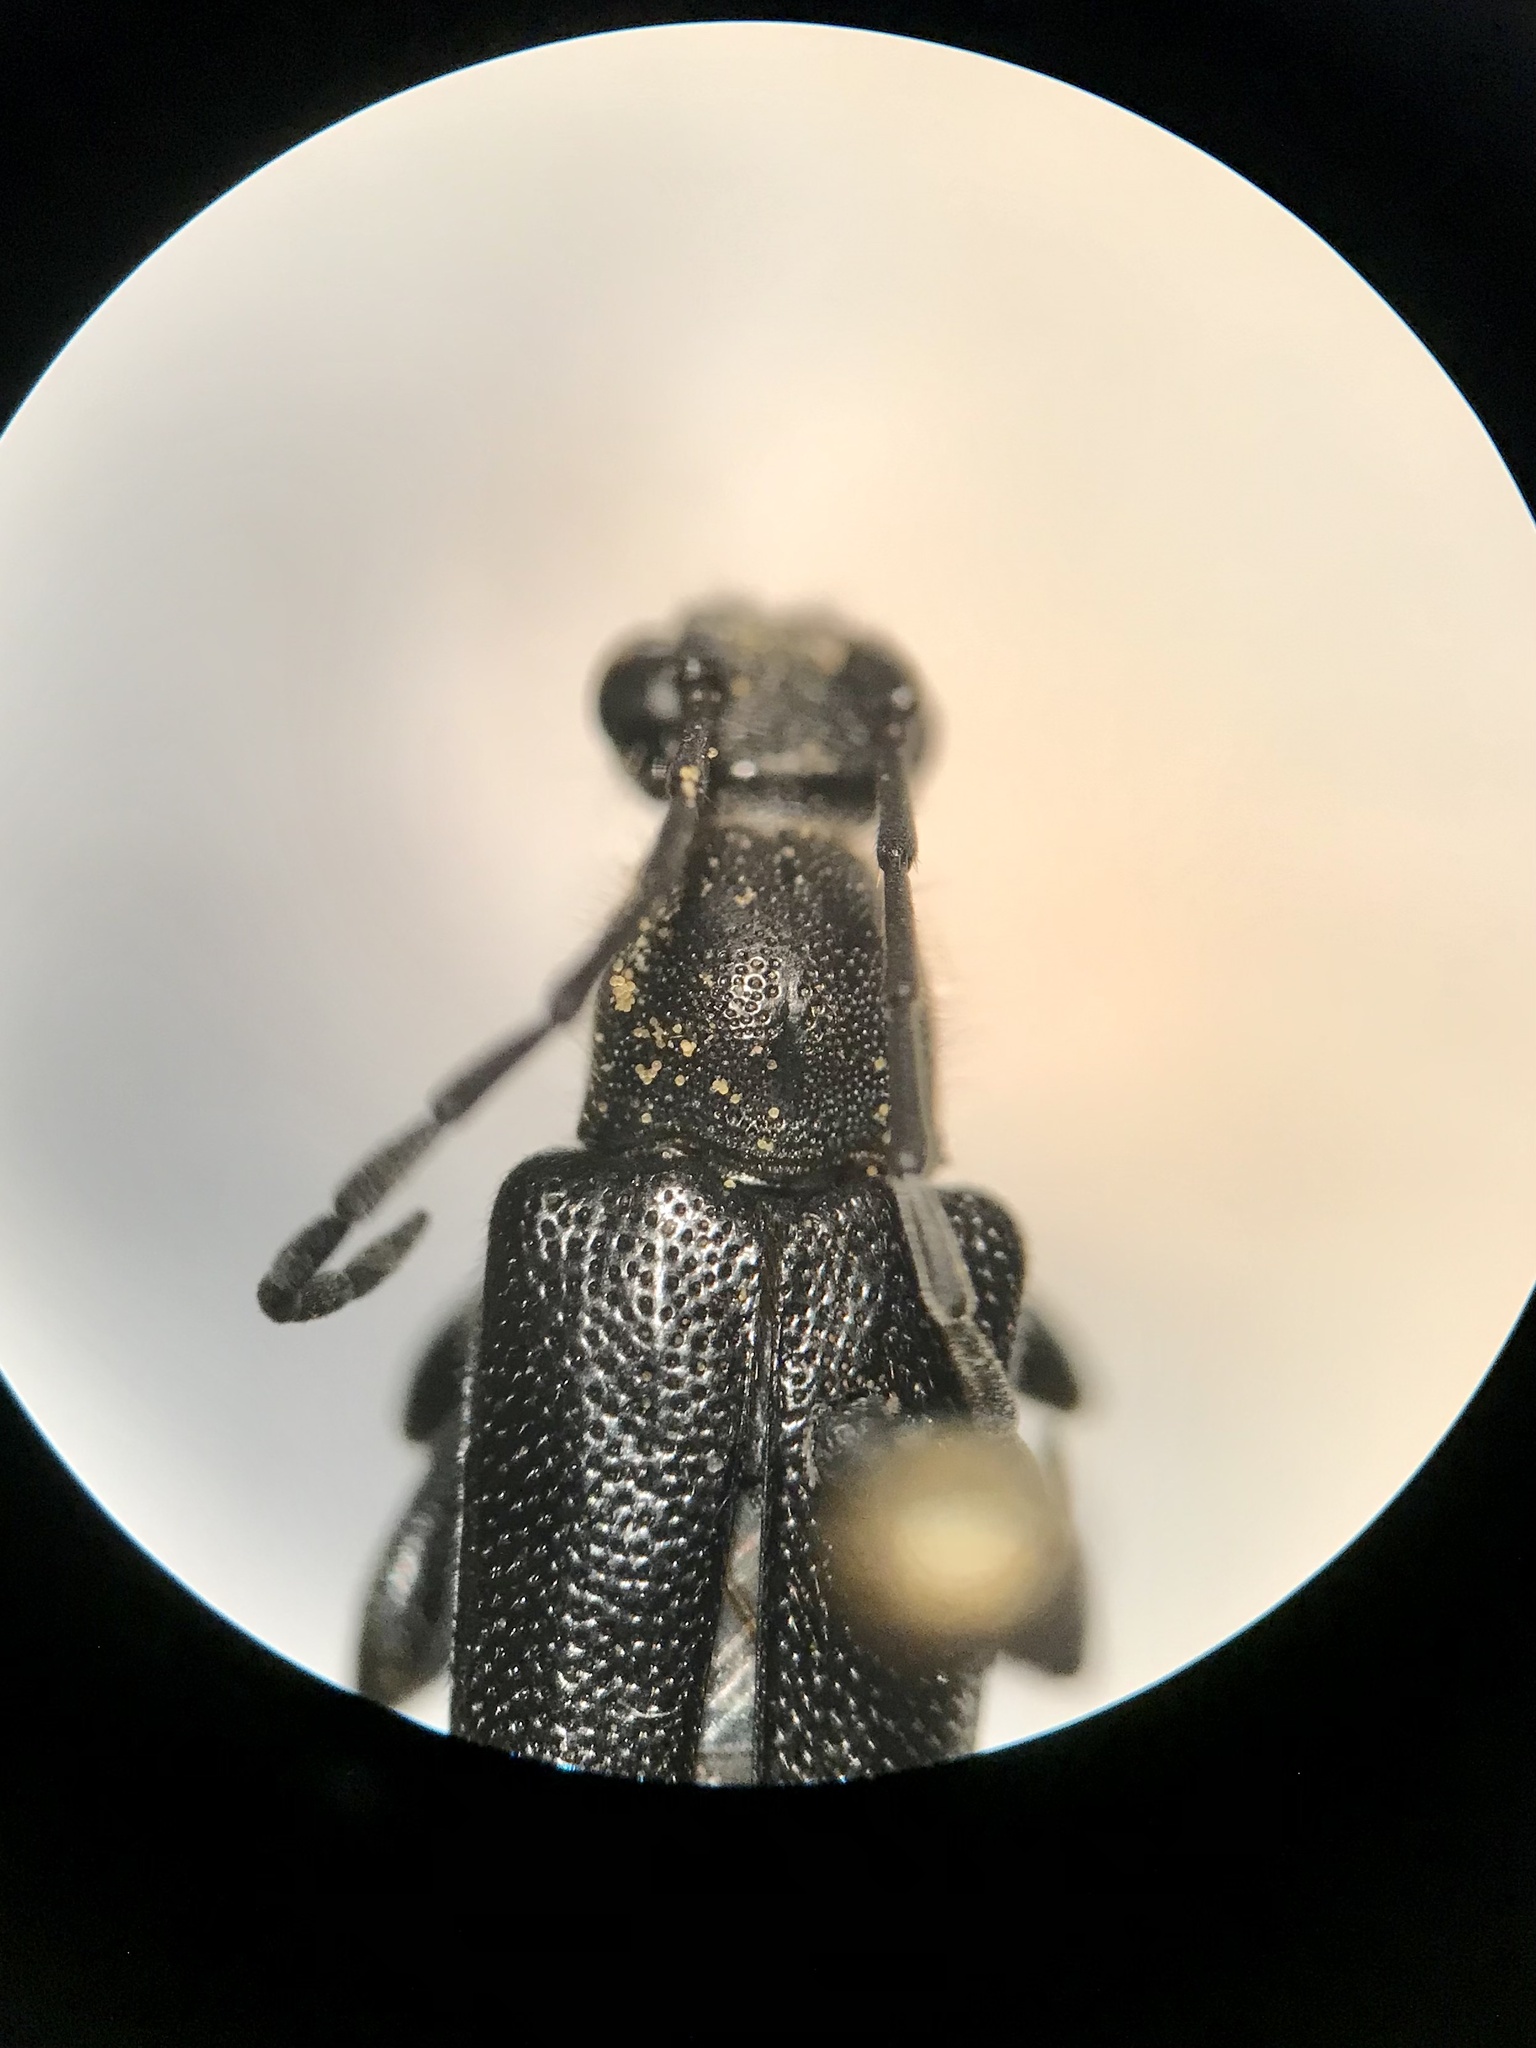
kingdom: Animalia
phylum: Arthropoda
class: Insecta
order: Coleoptera
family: Cerambycidae
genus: Anoplodera
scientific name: Anoplodera pubera
